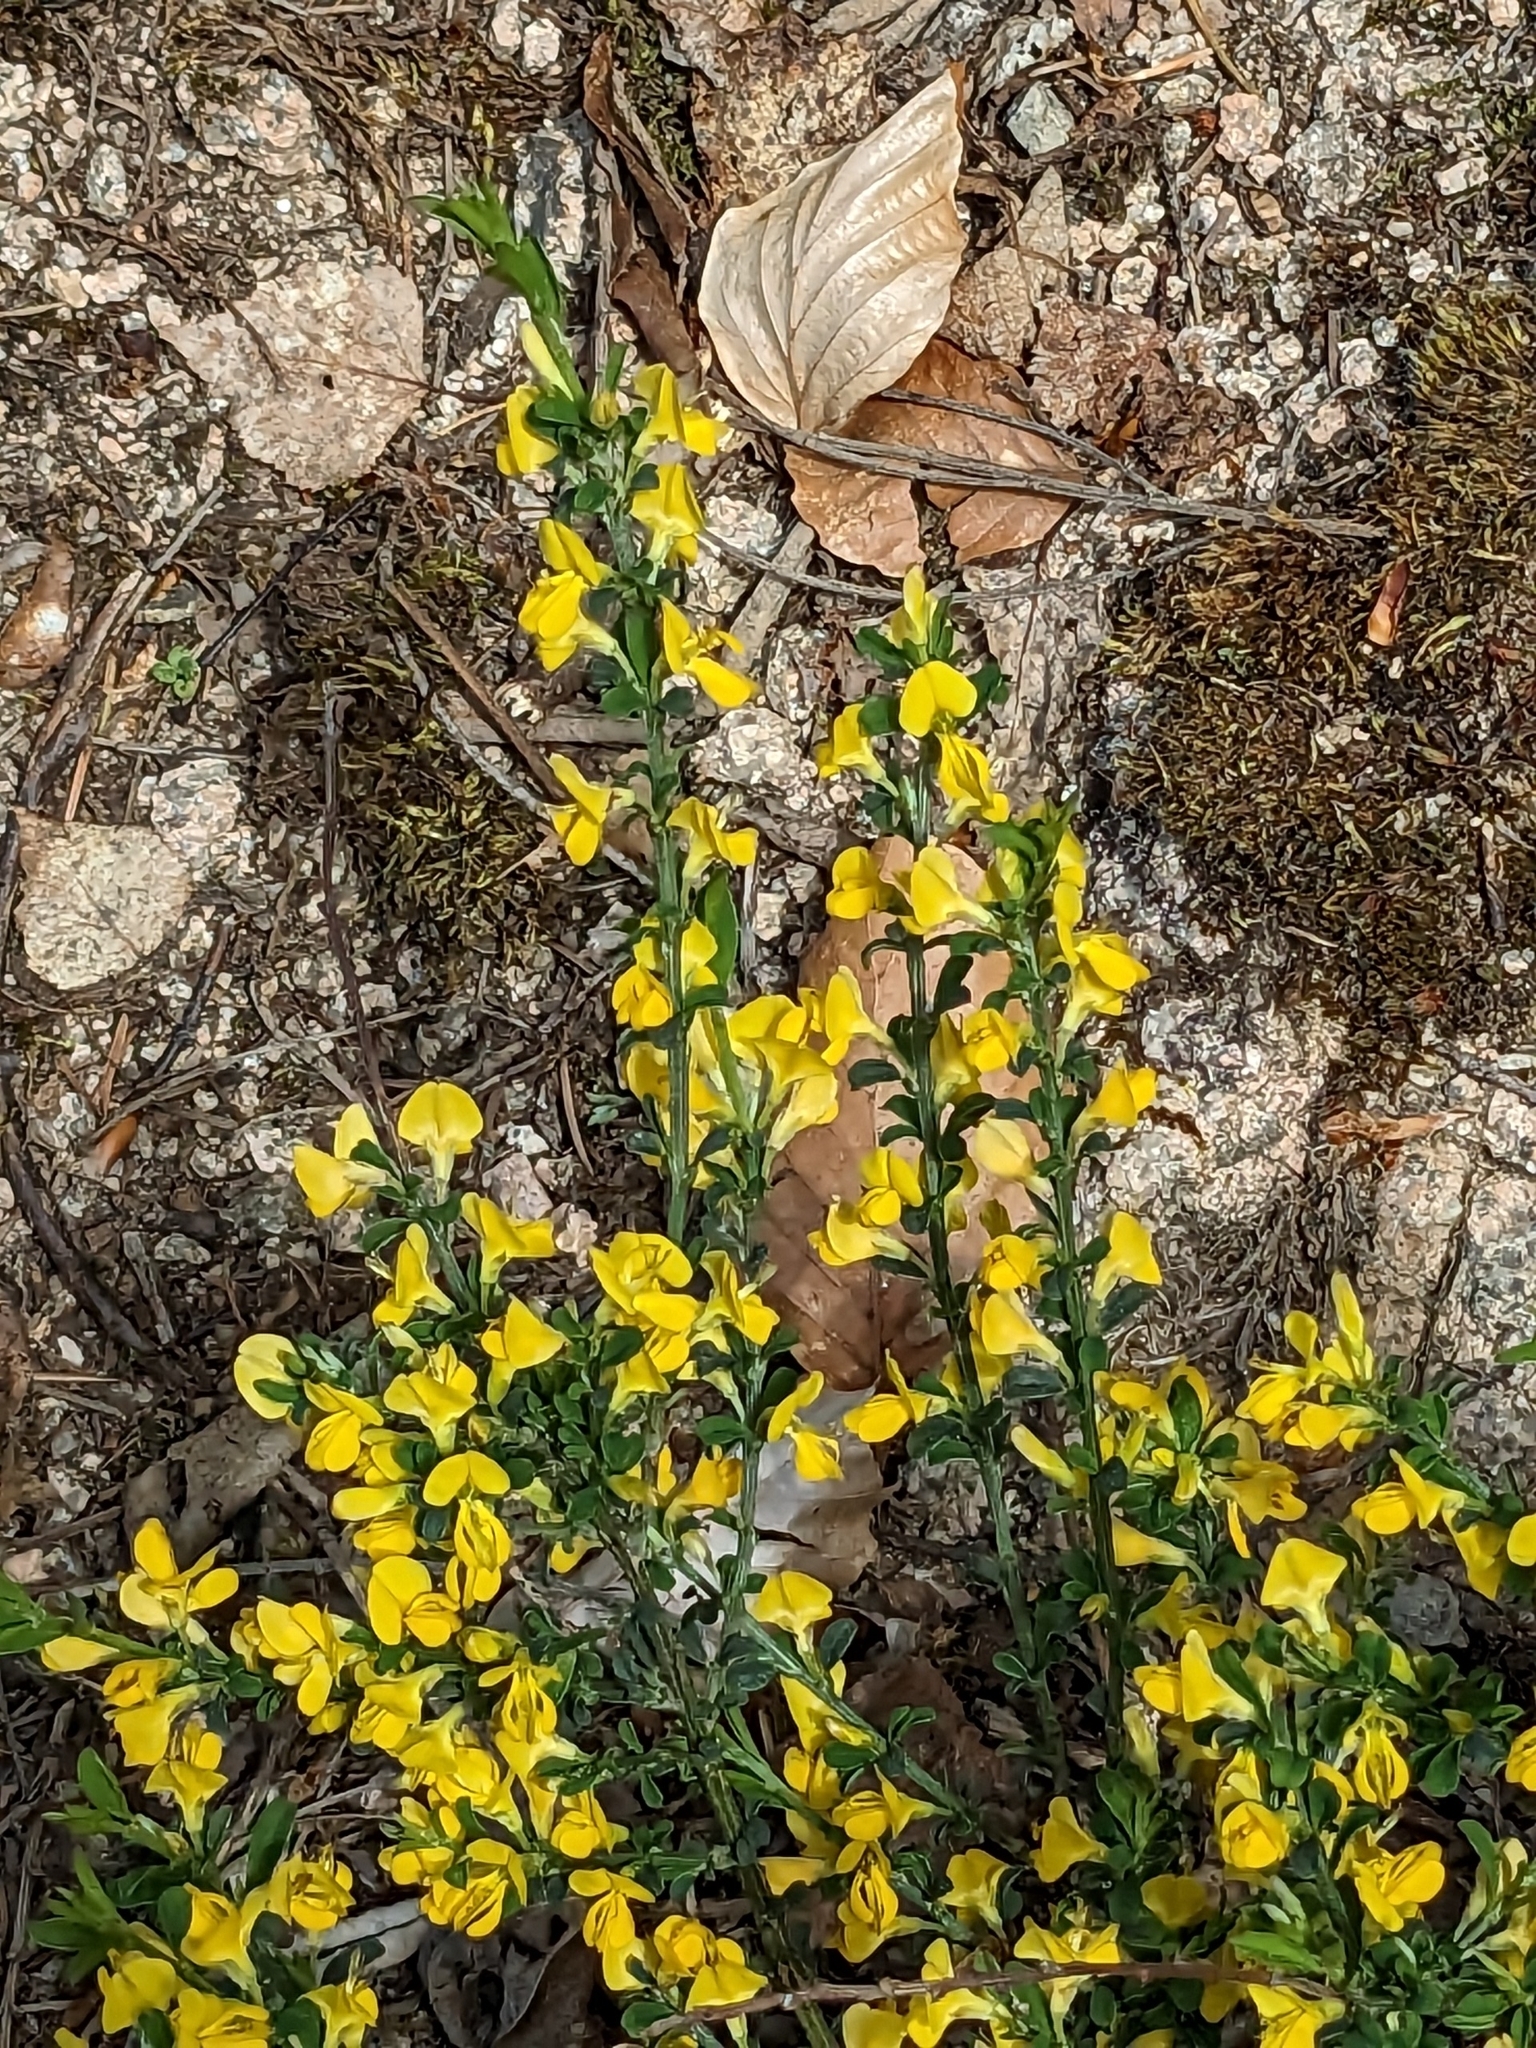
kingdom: Plantae
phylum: Tracheophyta
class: Magnoliopsida
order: Fabales
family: Fabaceae
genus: Genista
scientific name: Genista pilosa
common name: Hairy greenweed
